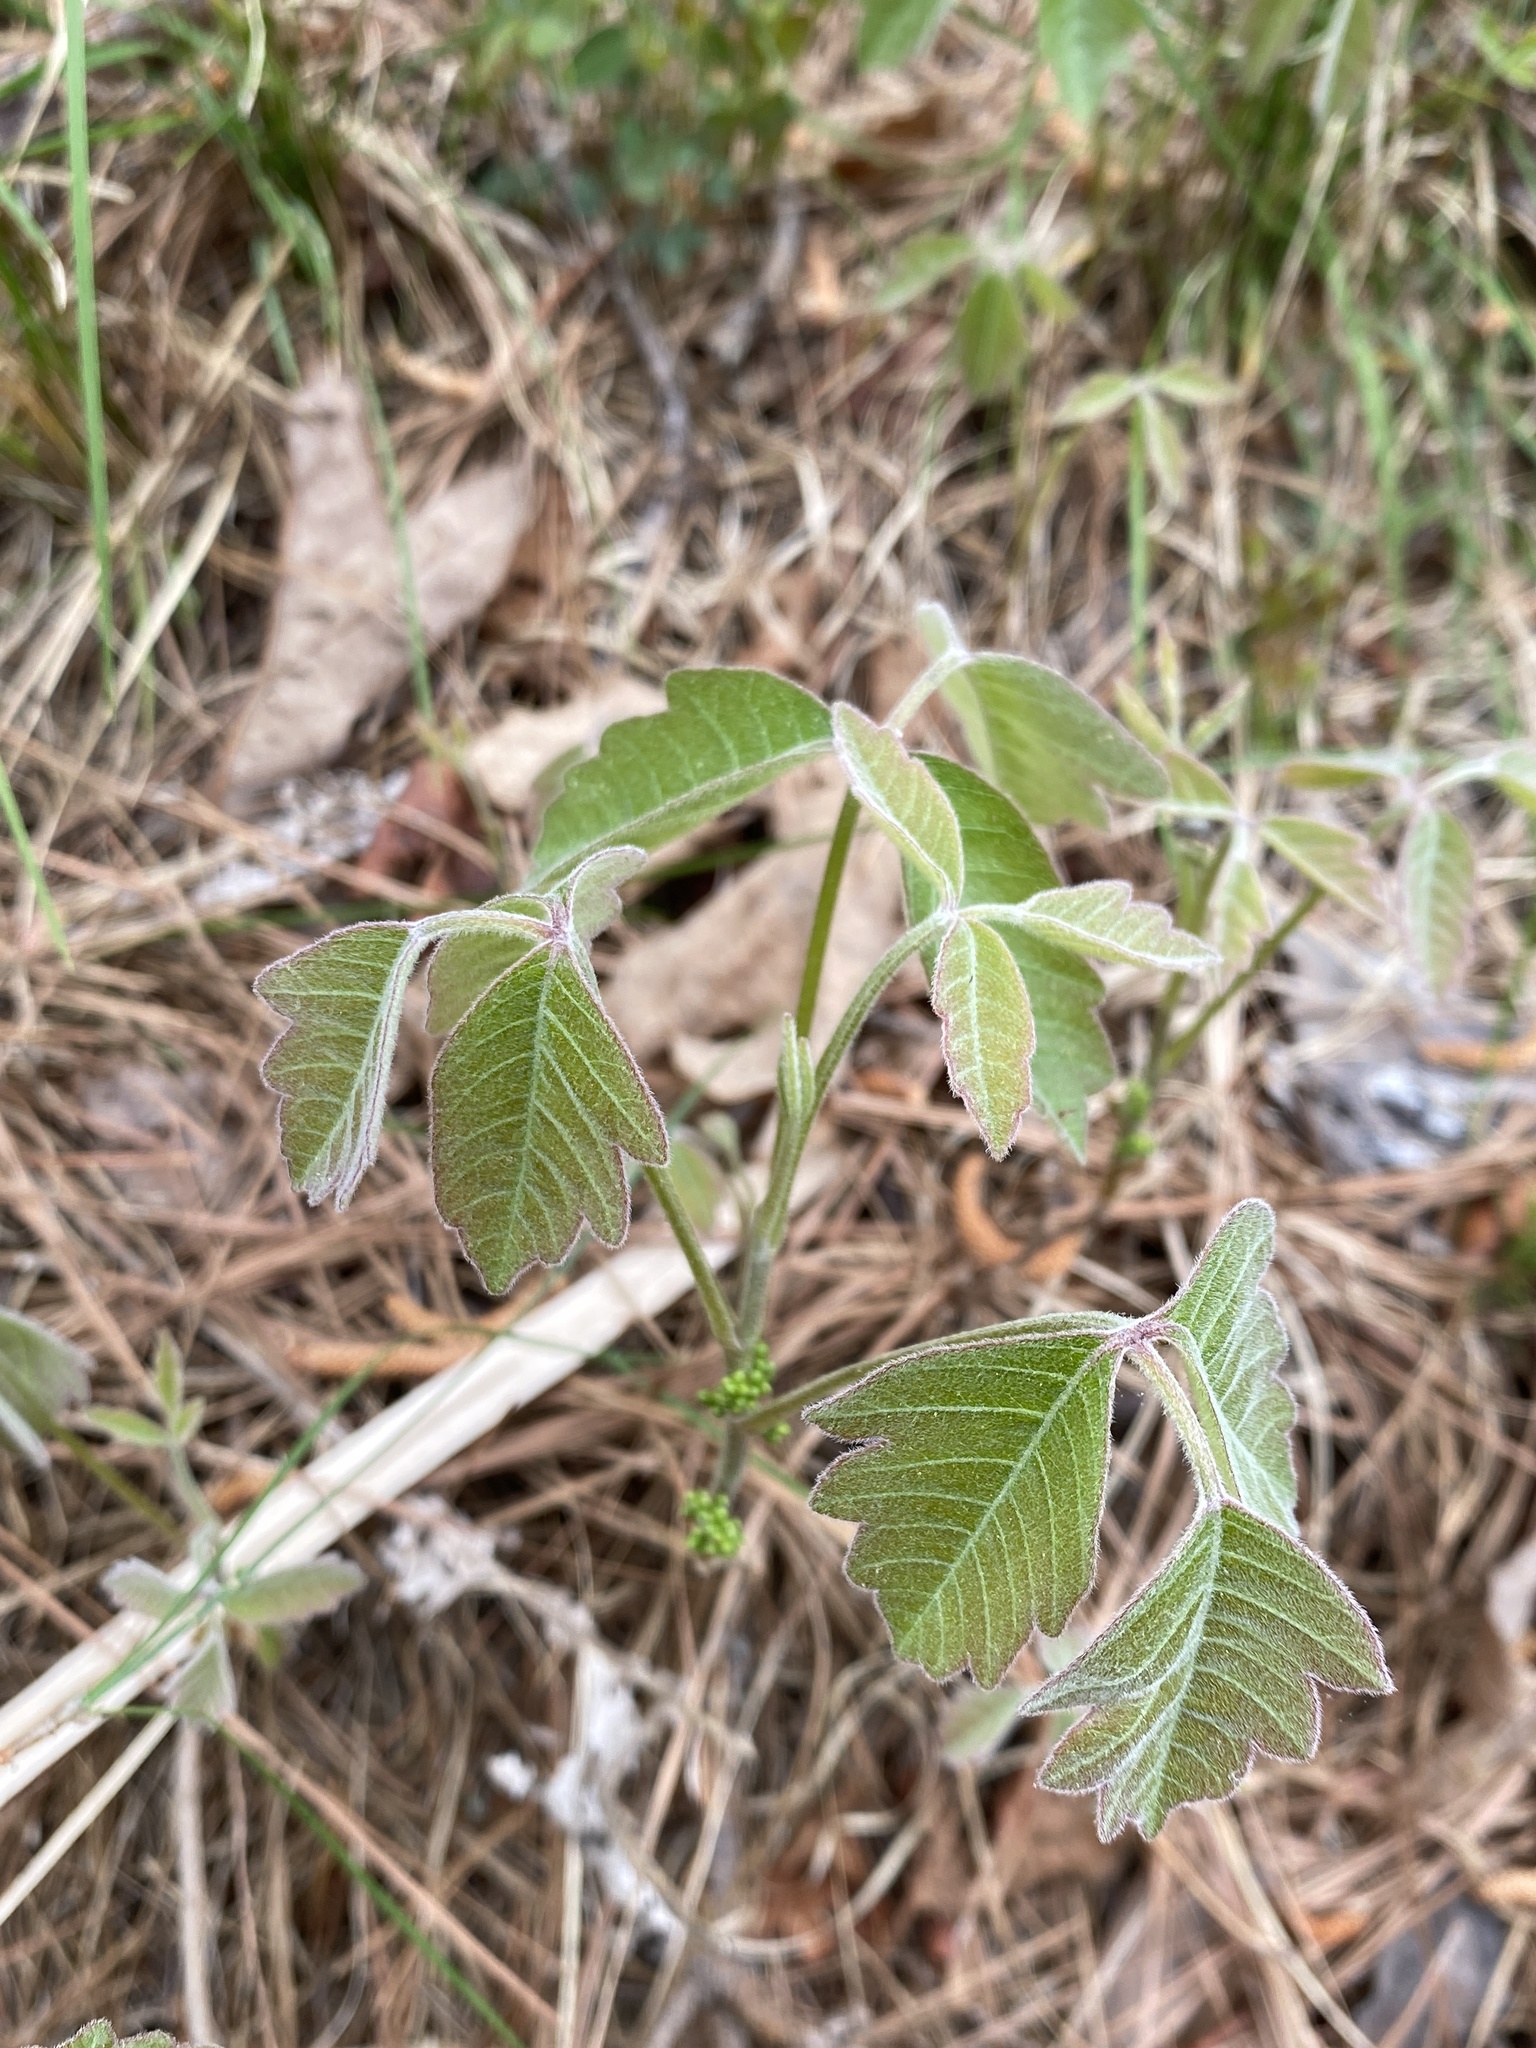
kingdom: Plantae
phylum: Tracheophyta
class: Magnoliopsida
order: Sapindales
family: Anacardiaceae
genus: Toxicodendron
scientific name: Toxicodendron pubescens
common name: Eastern poison-oak
